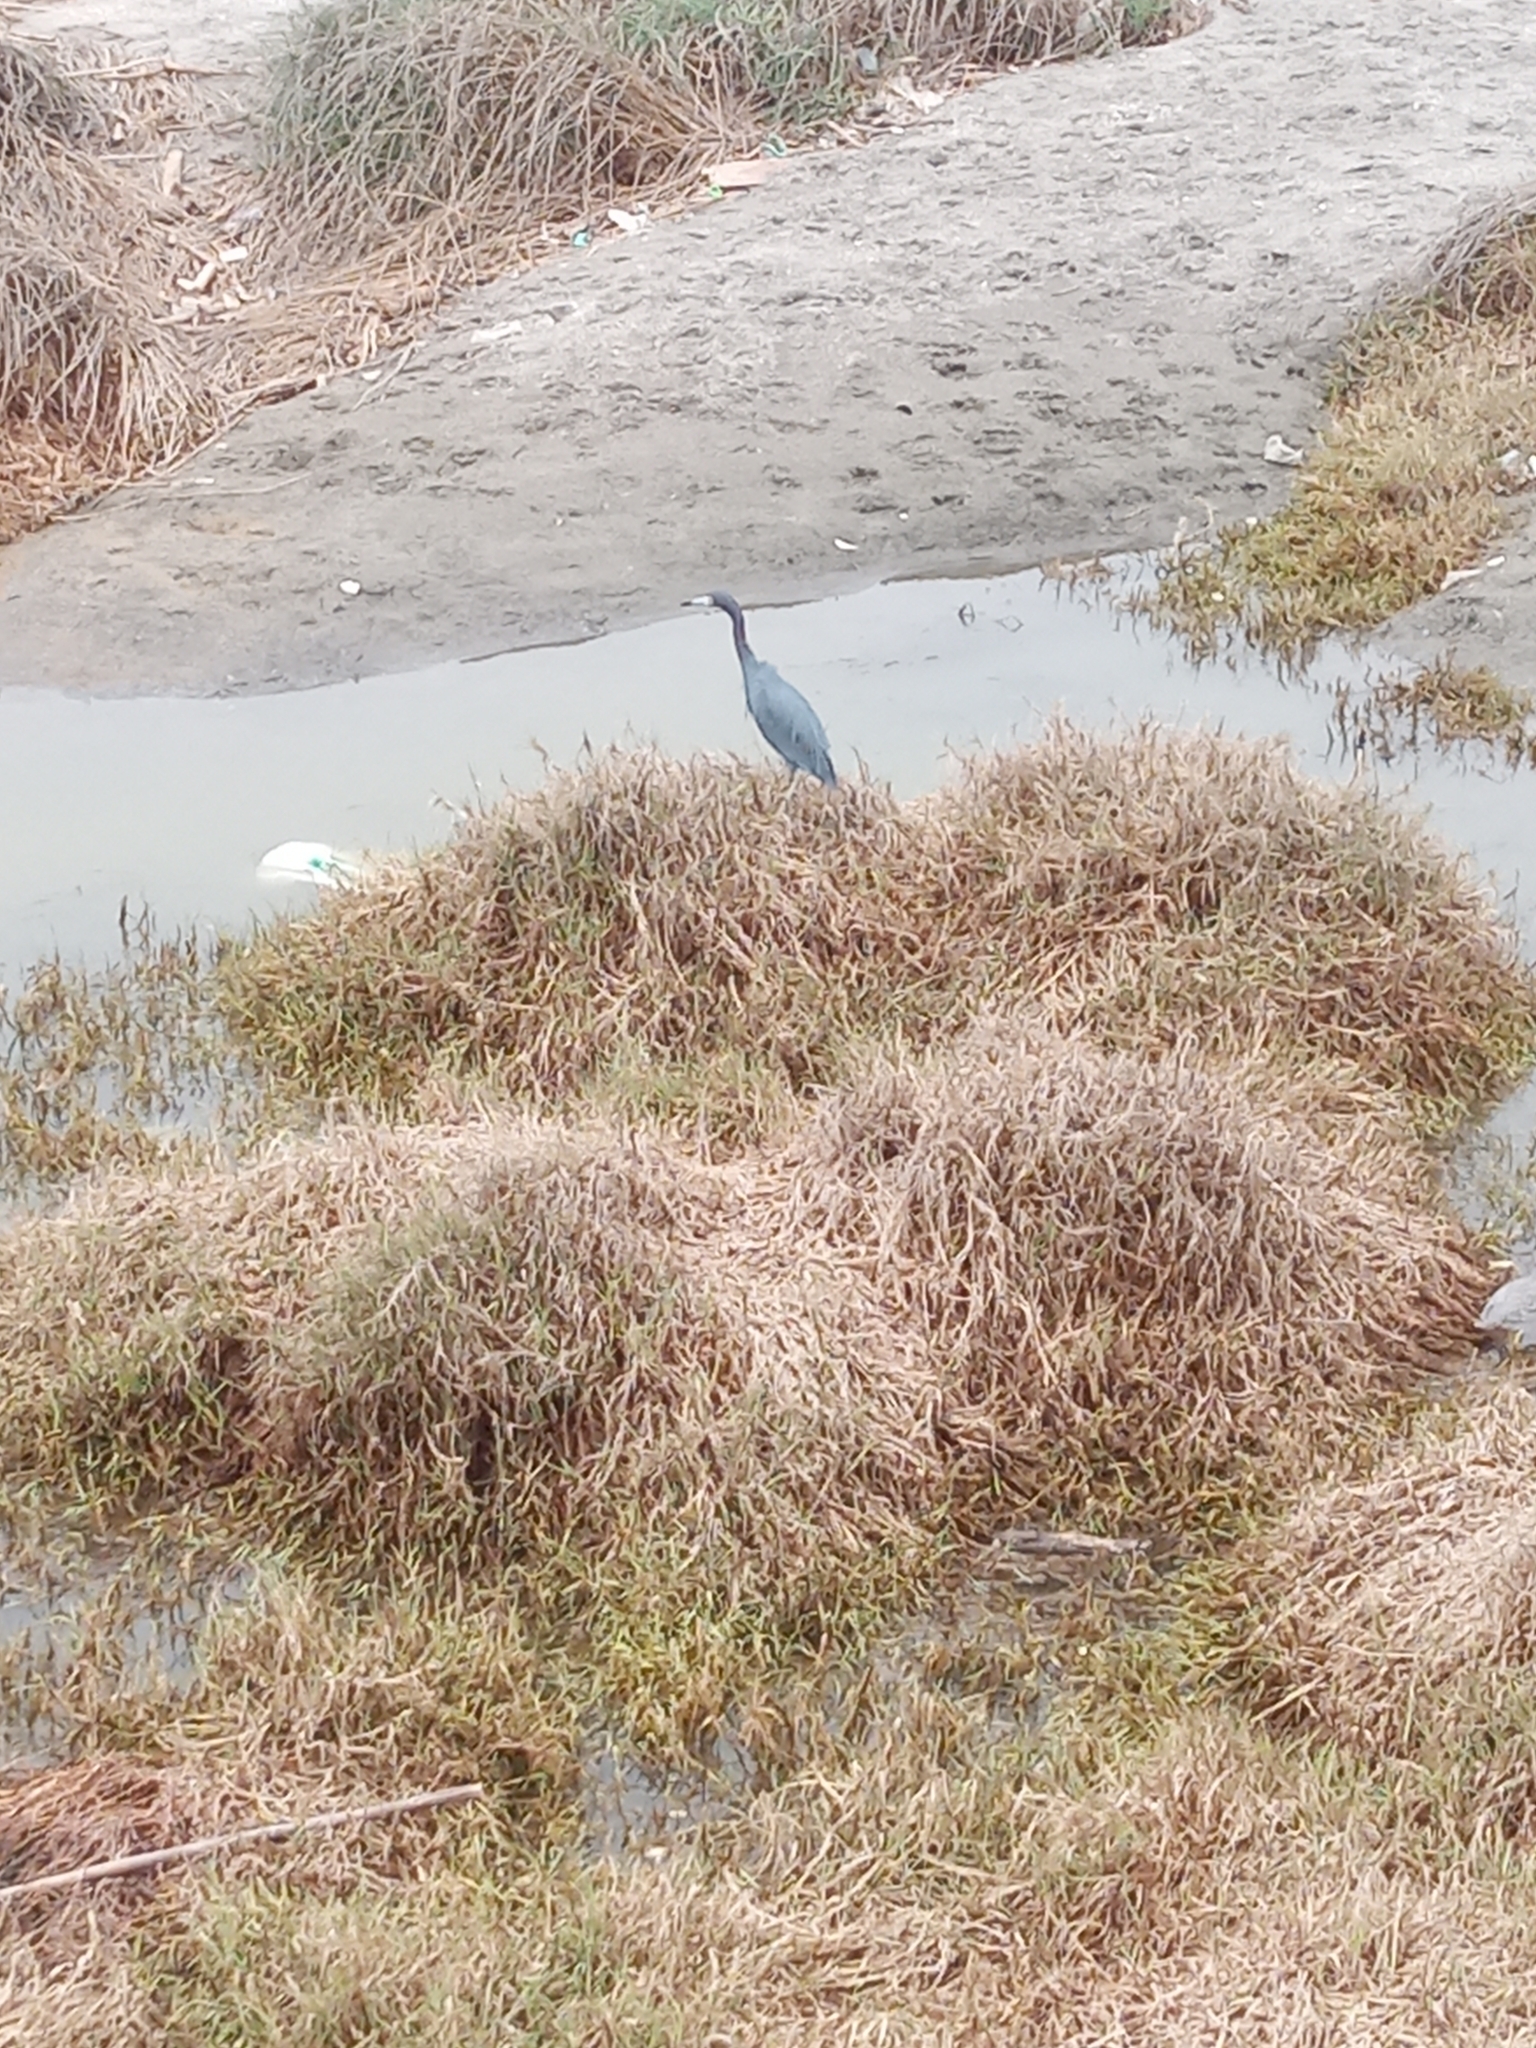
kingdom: Animalia
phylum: Chordata
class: Aves
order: Pelecaniformes
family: Ardeidae
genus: Egretta
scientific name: Egretta caerulea
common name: Little blue heron
